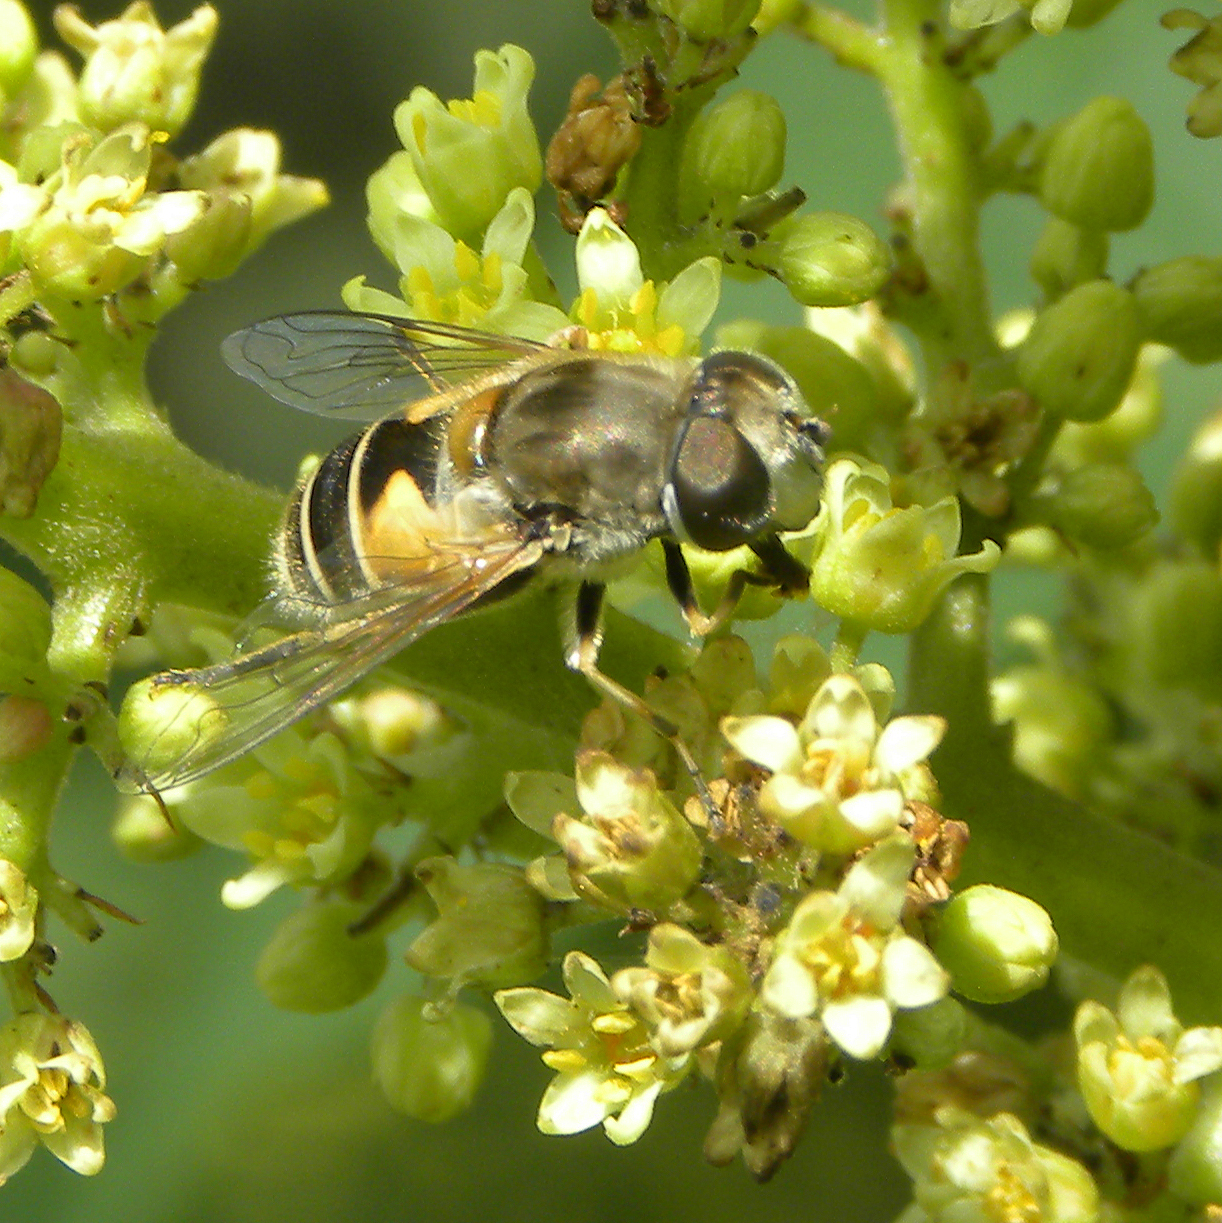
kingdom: Animalia
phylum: Arthropoda
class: Insecta
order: Diptera
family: Syrphidae
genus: Eristalis
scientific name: Eristalis arbustorum
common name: Hover fly
